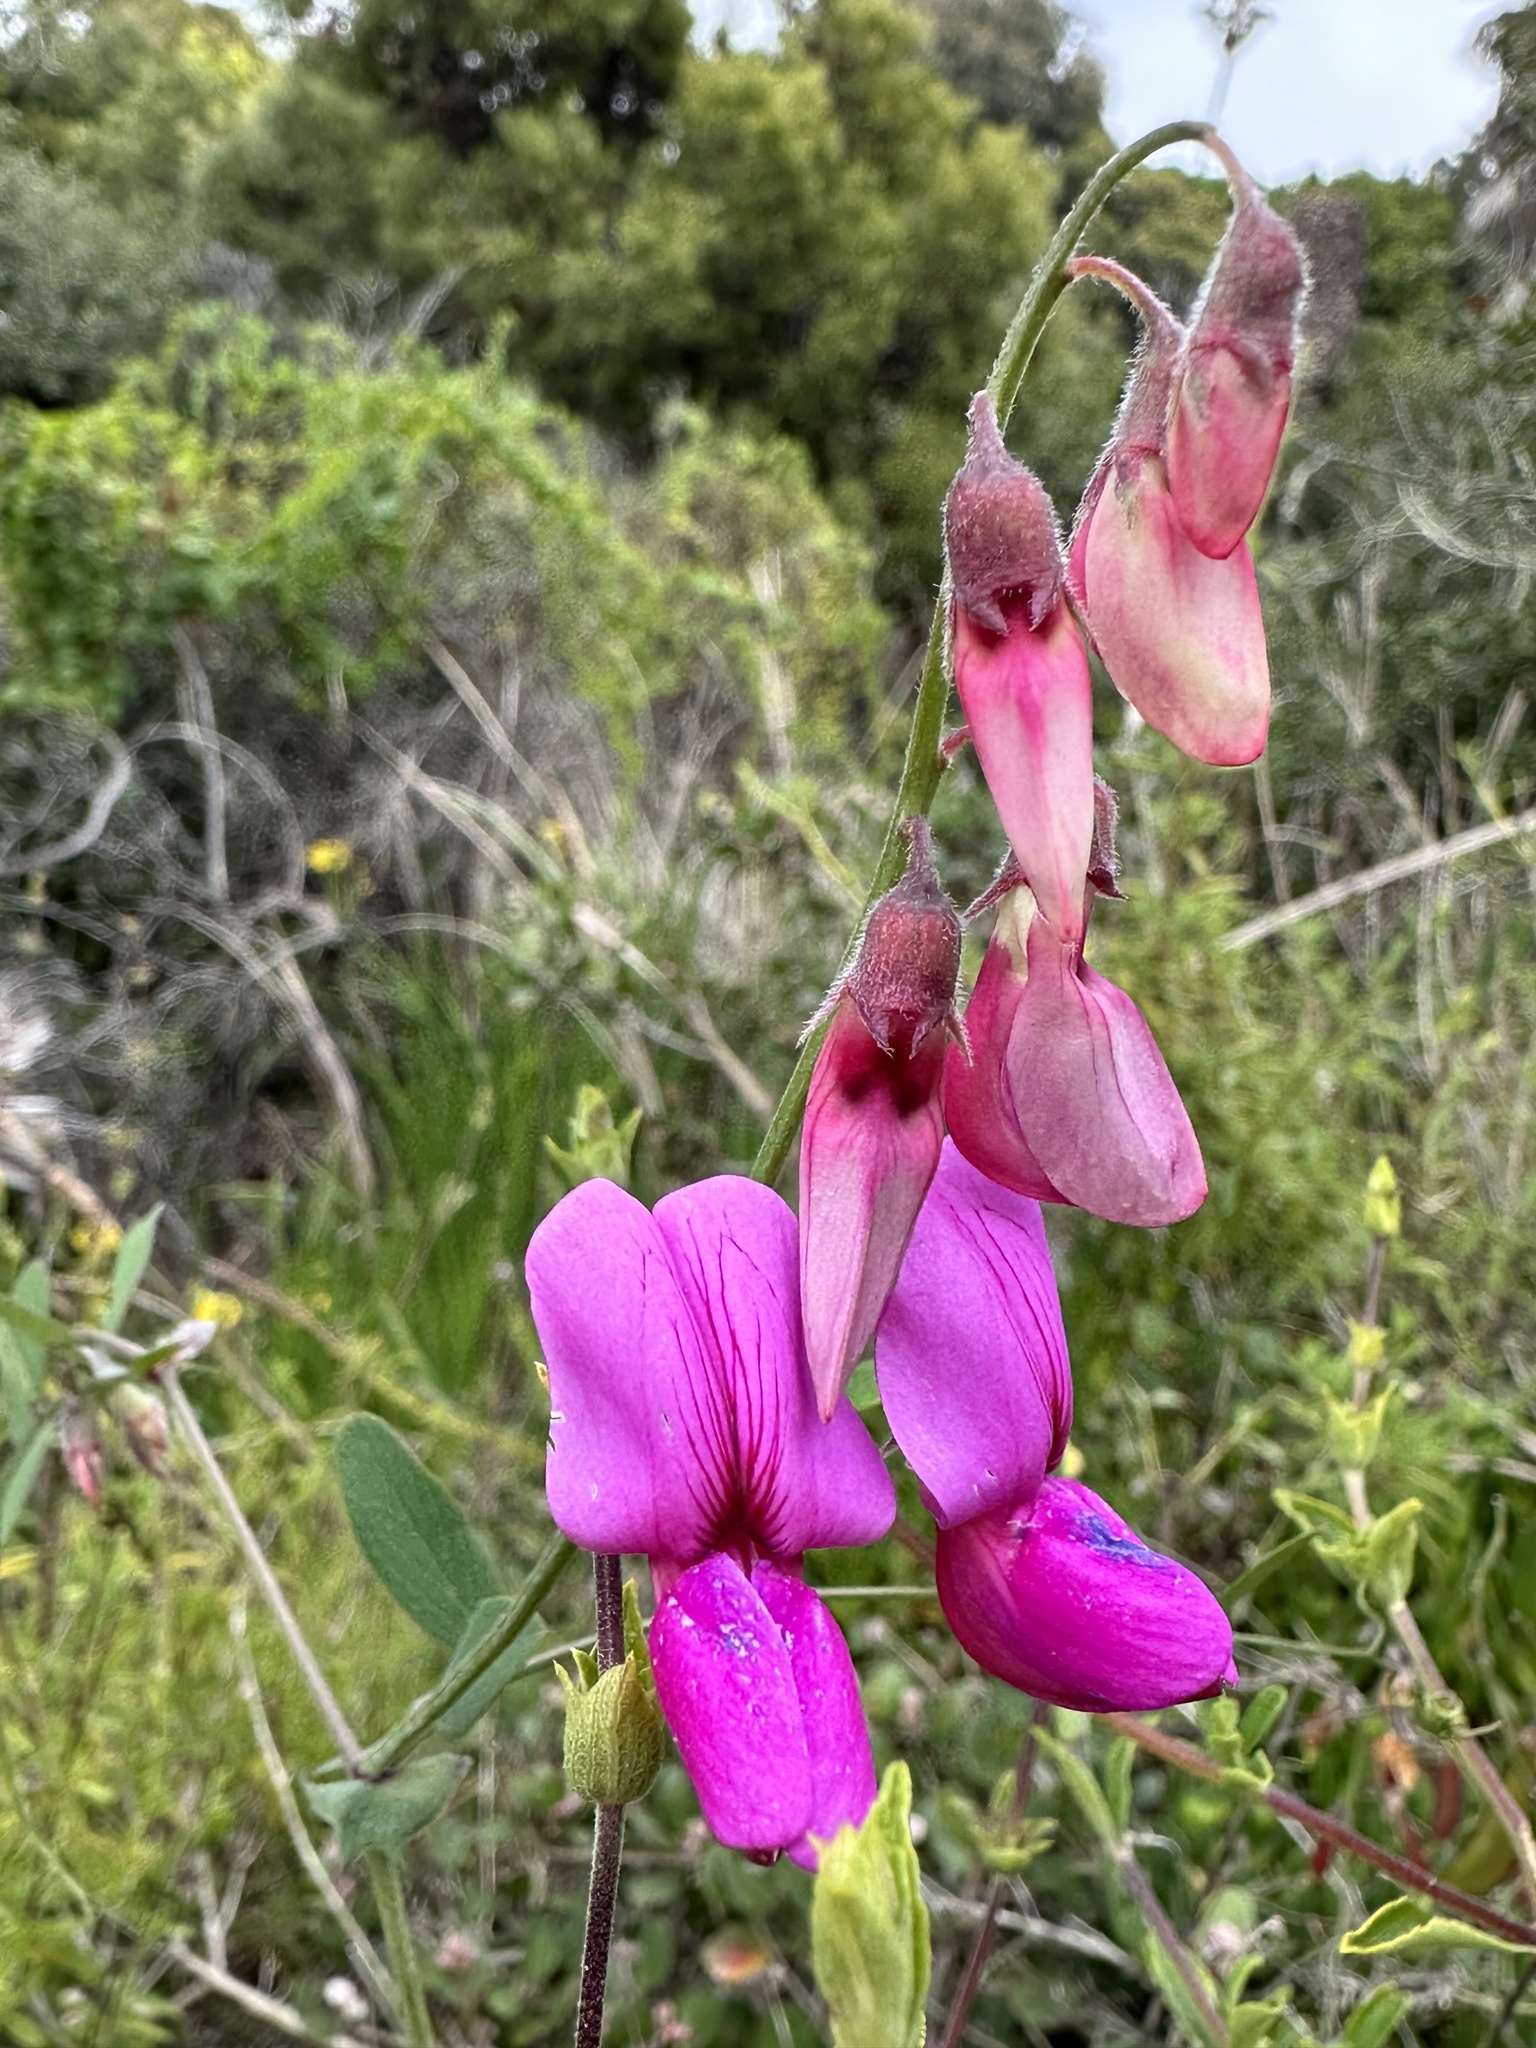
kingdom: Plantae
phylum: Tracheophyta
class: Magnoliopsida
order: Fabales
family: Fabaceae
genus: Lathyrus
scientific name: Lathyrus vestitus
